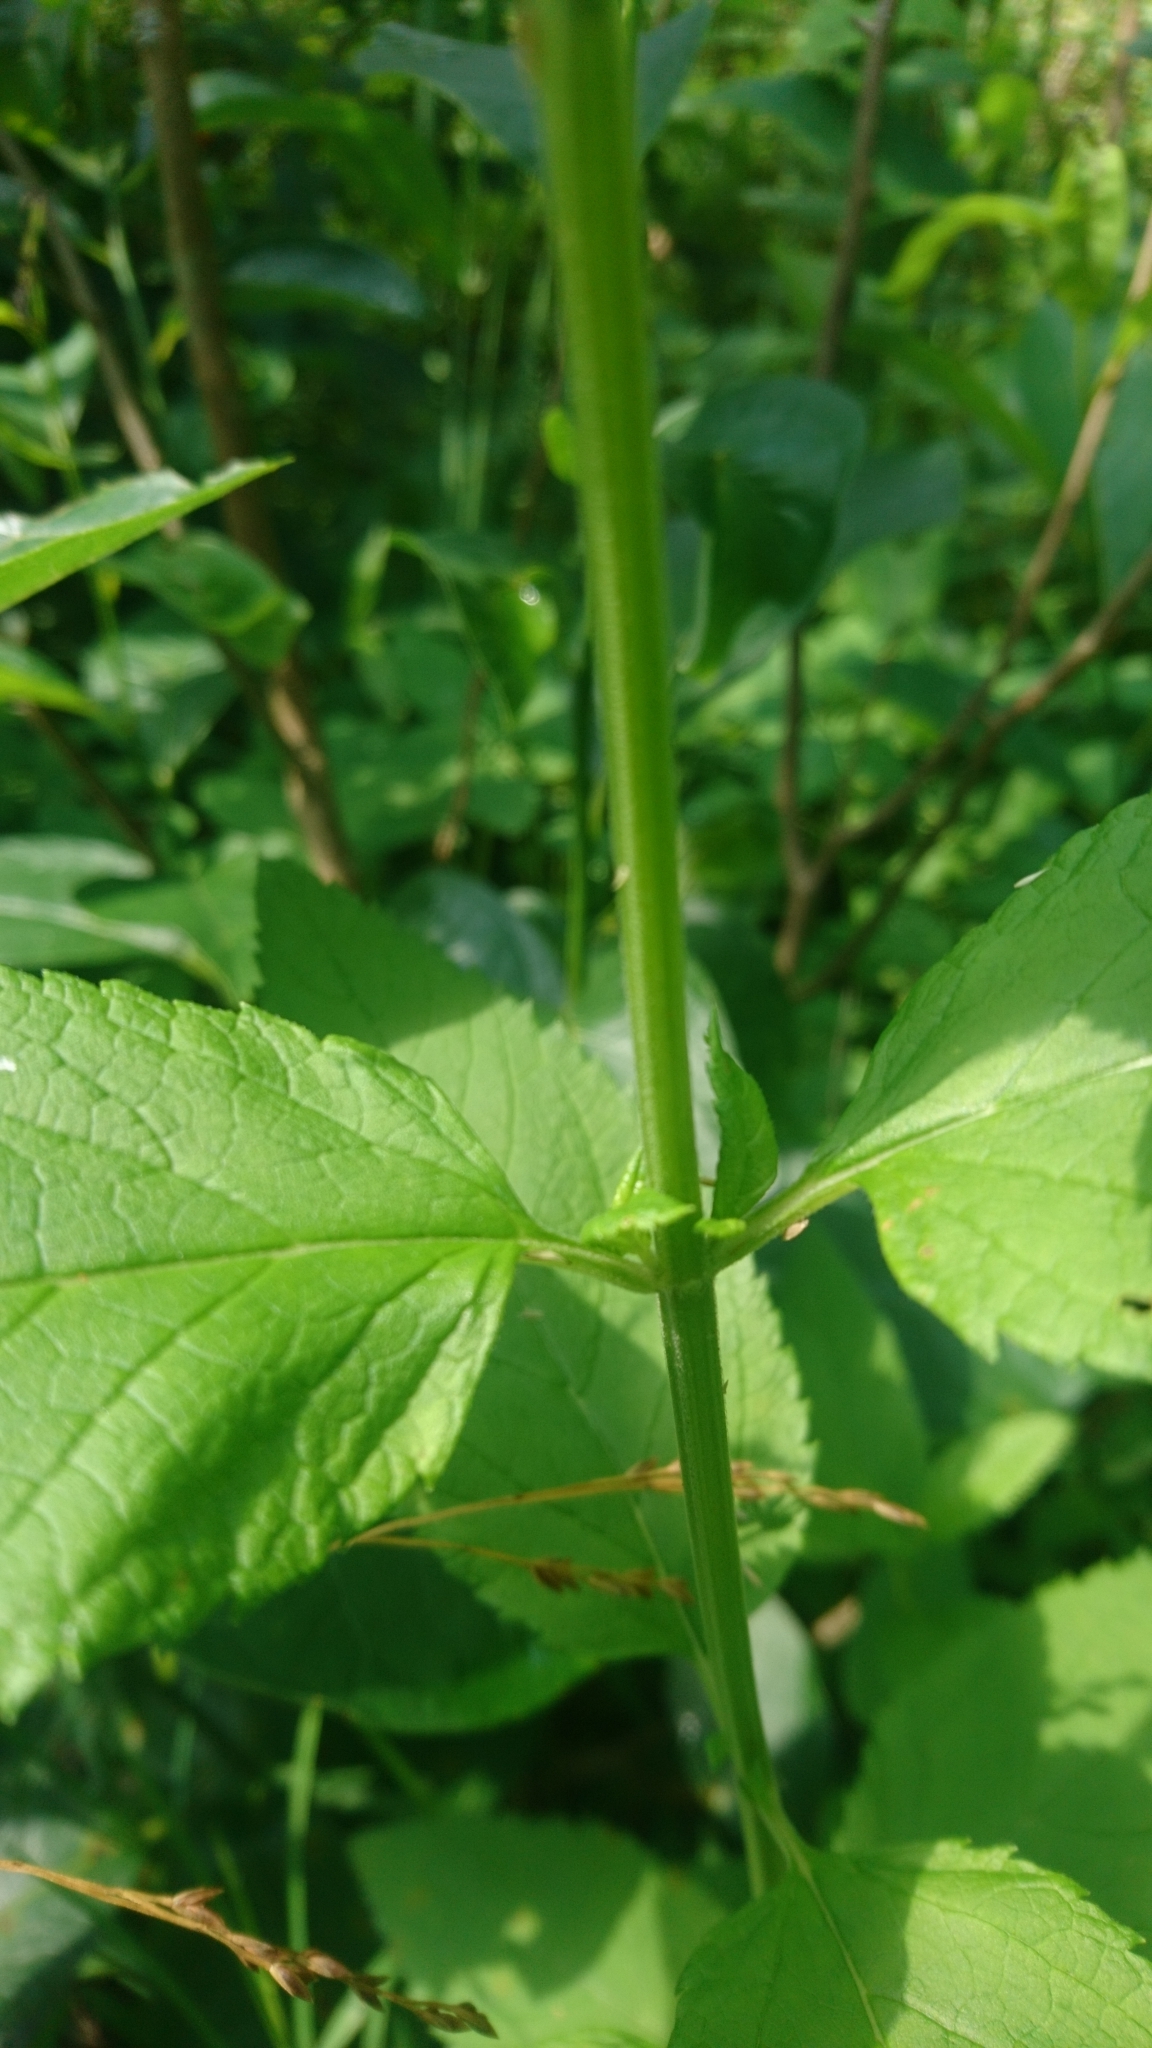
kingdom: Plantae
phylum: Tracheophyta
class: Magnoliopsida
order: Lamiales
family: Lamiaceae
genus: Teucrium
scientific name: Teucrium canadense
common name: American germander
